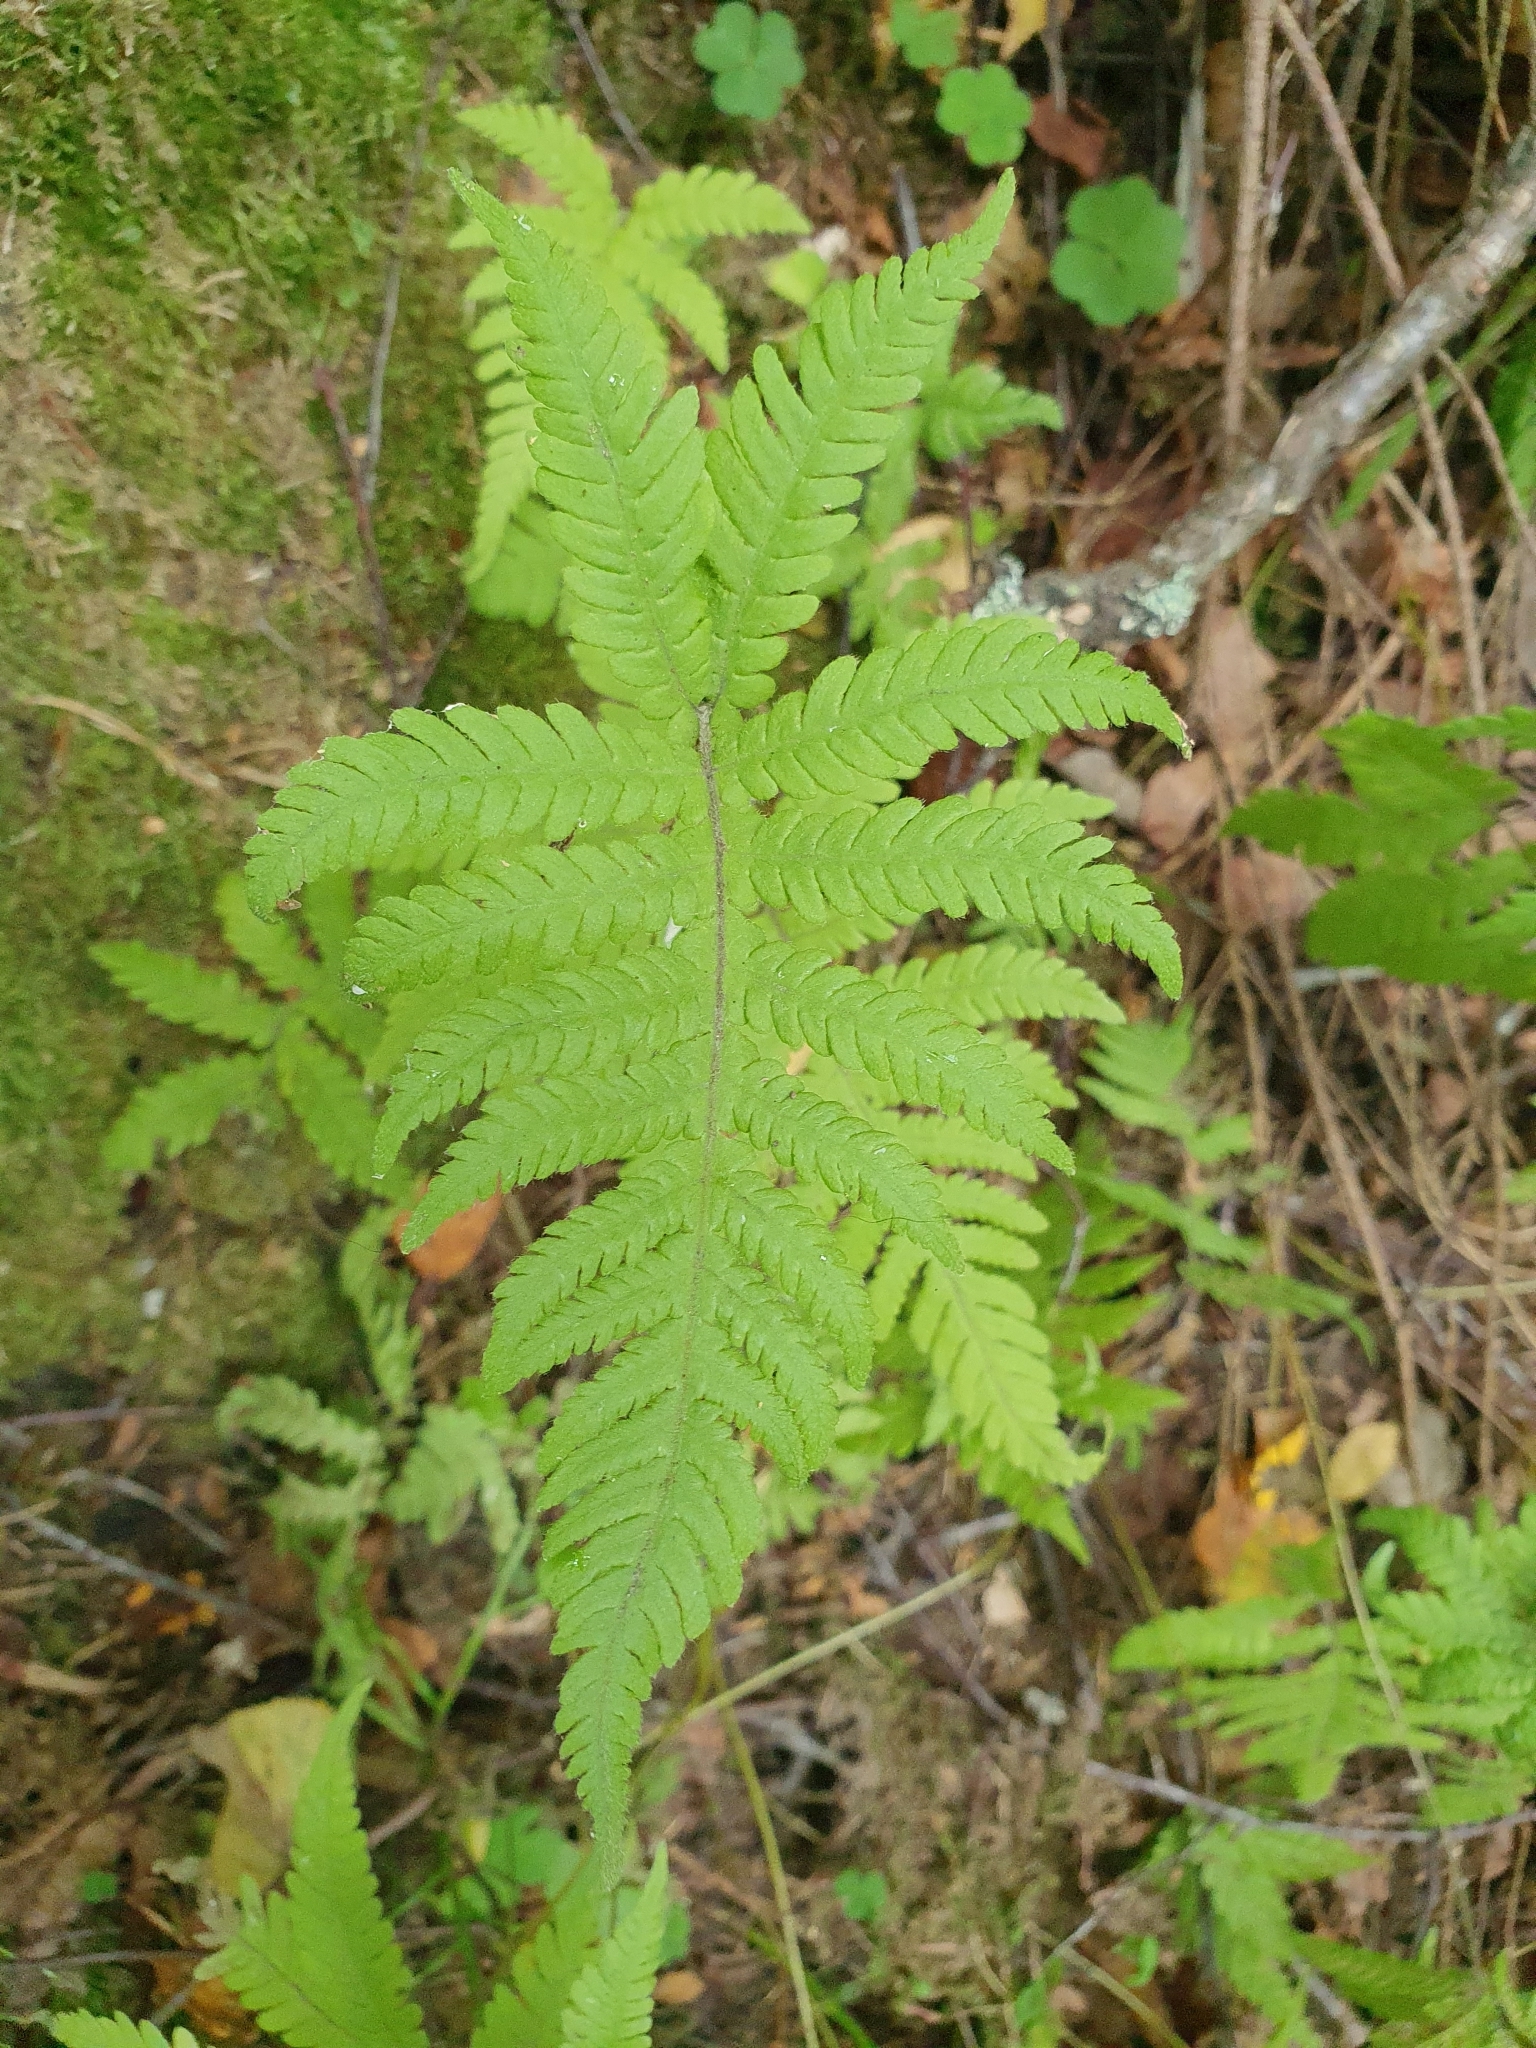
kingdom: Plantae
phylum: Tracheophyta
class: Polypodiopsida
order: Polypodiales
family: Thelypteridaceae
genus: Phegopteris
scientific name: Phegopteris connectilis
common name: Beech fern
